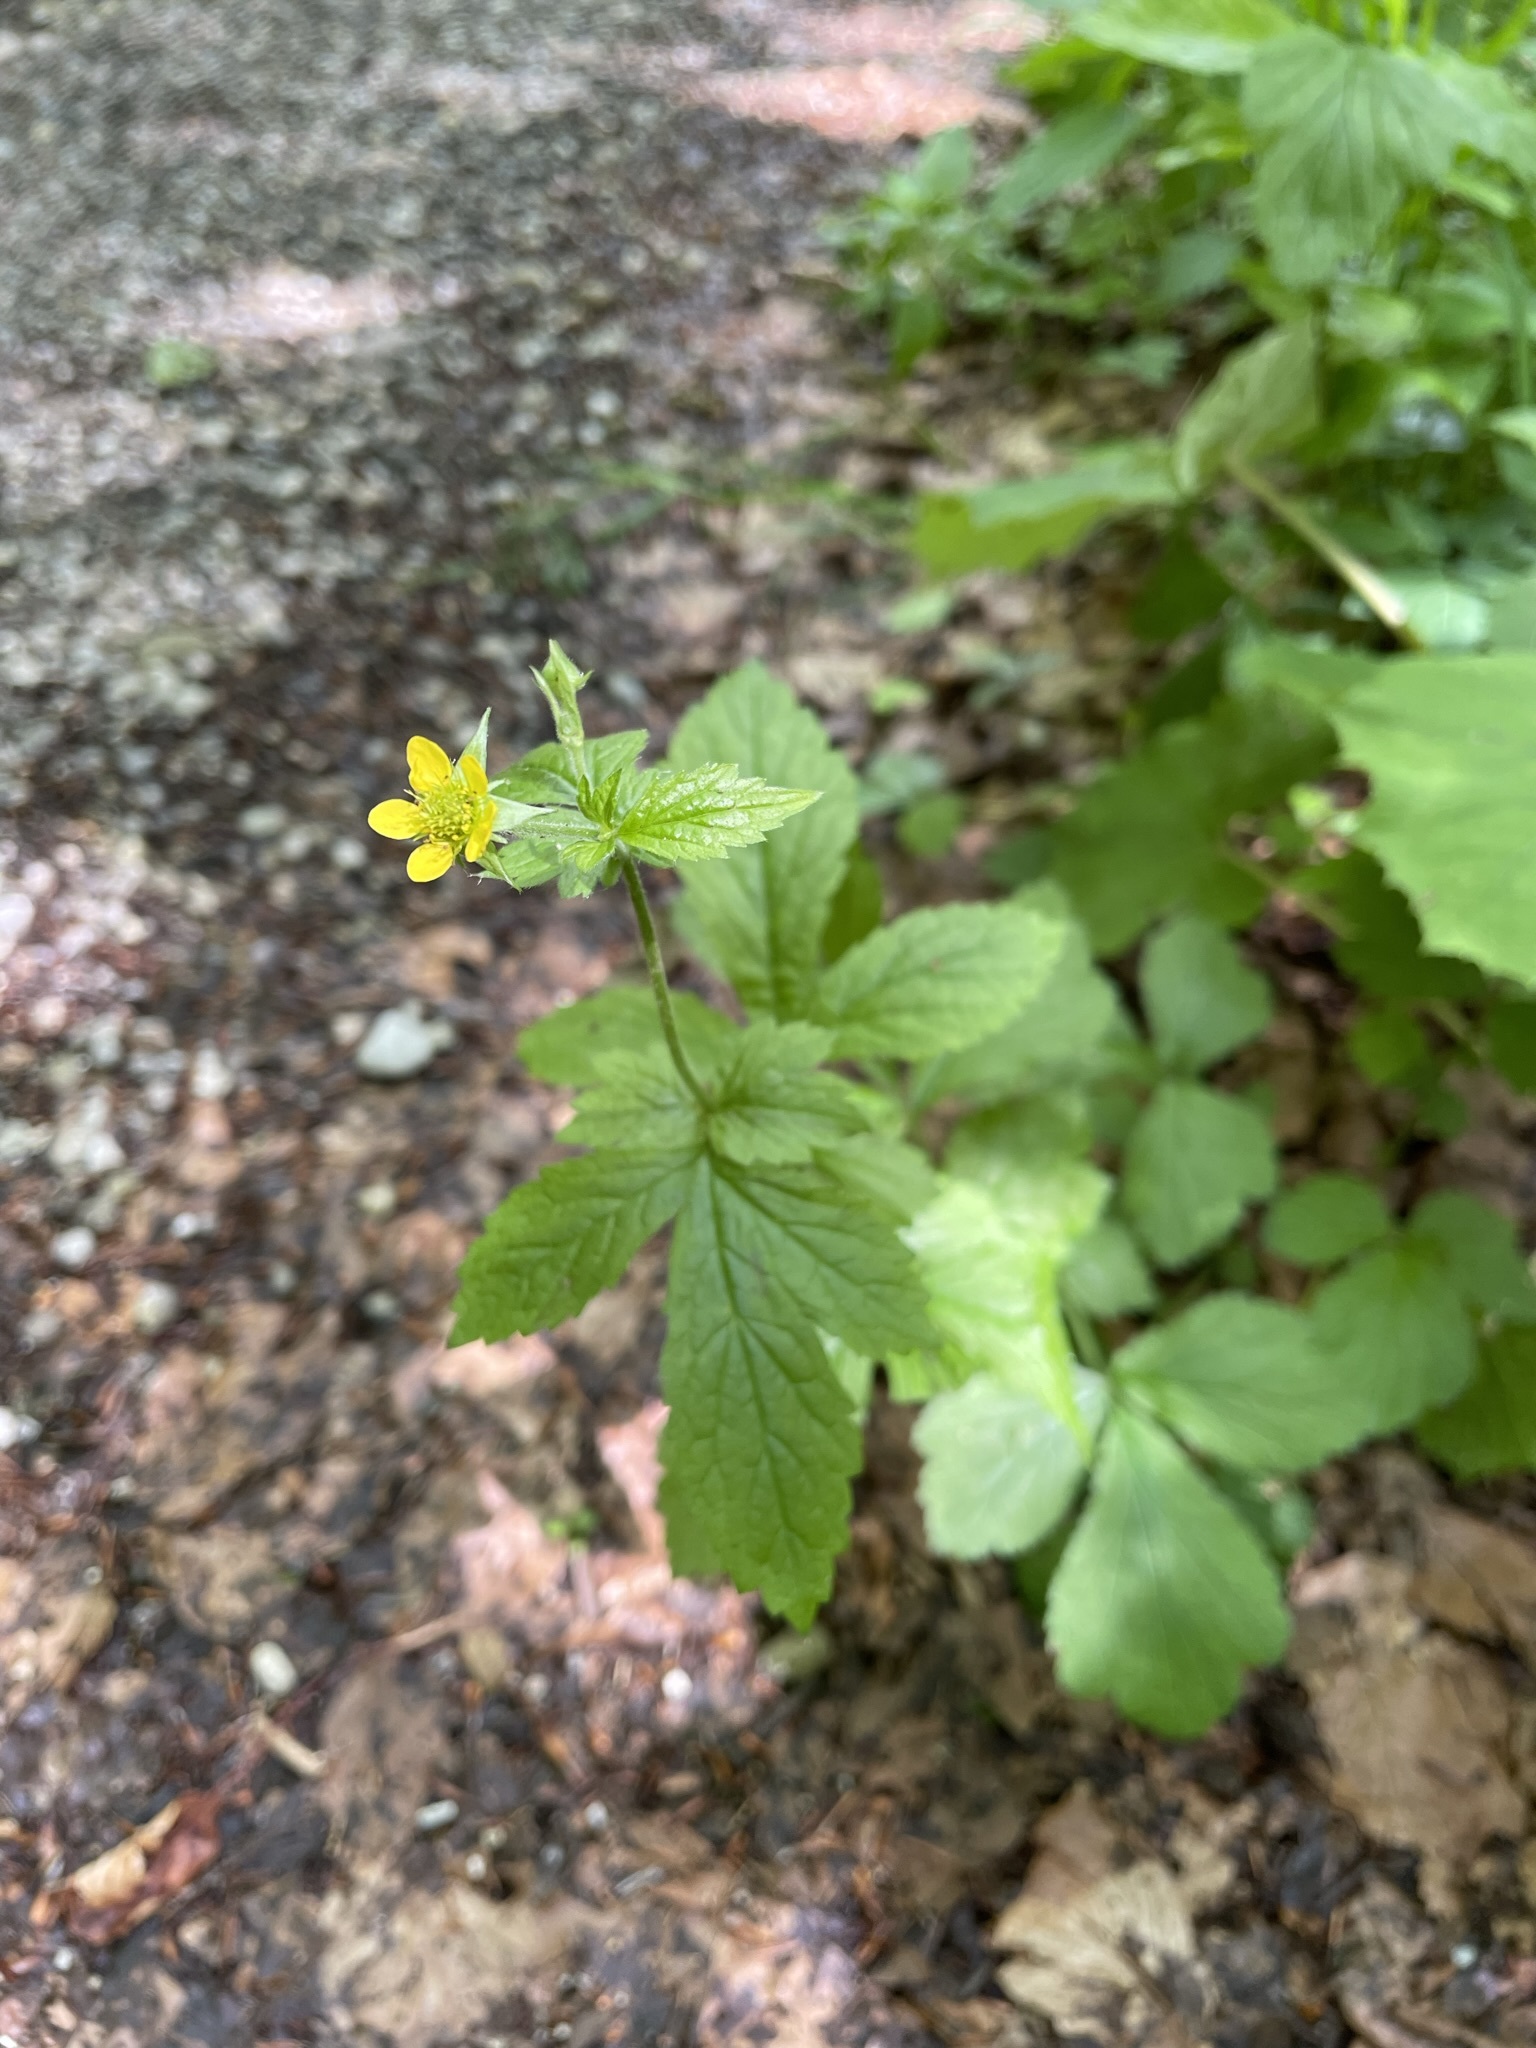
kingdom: Plantae
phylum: Tracheophyta
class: Magnoliopsida
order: Rosales
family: Rosaceae
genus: Geum
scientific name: Geum urbanum
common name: Wood avens
